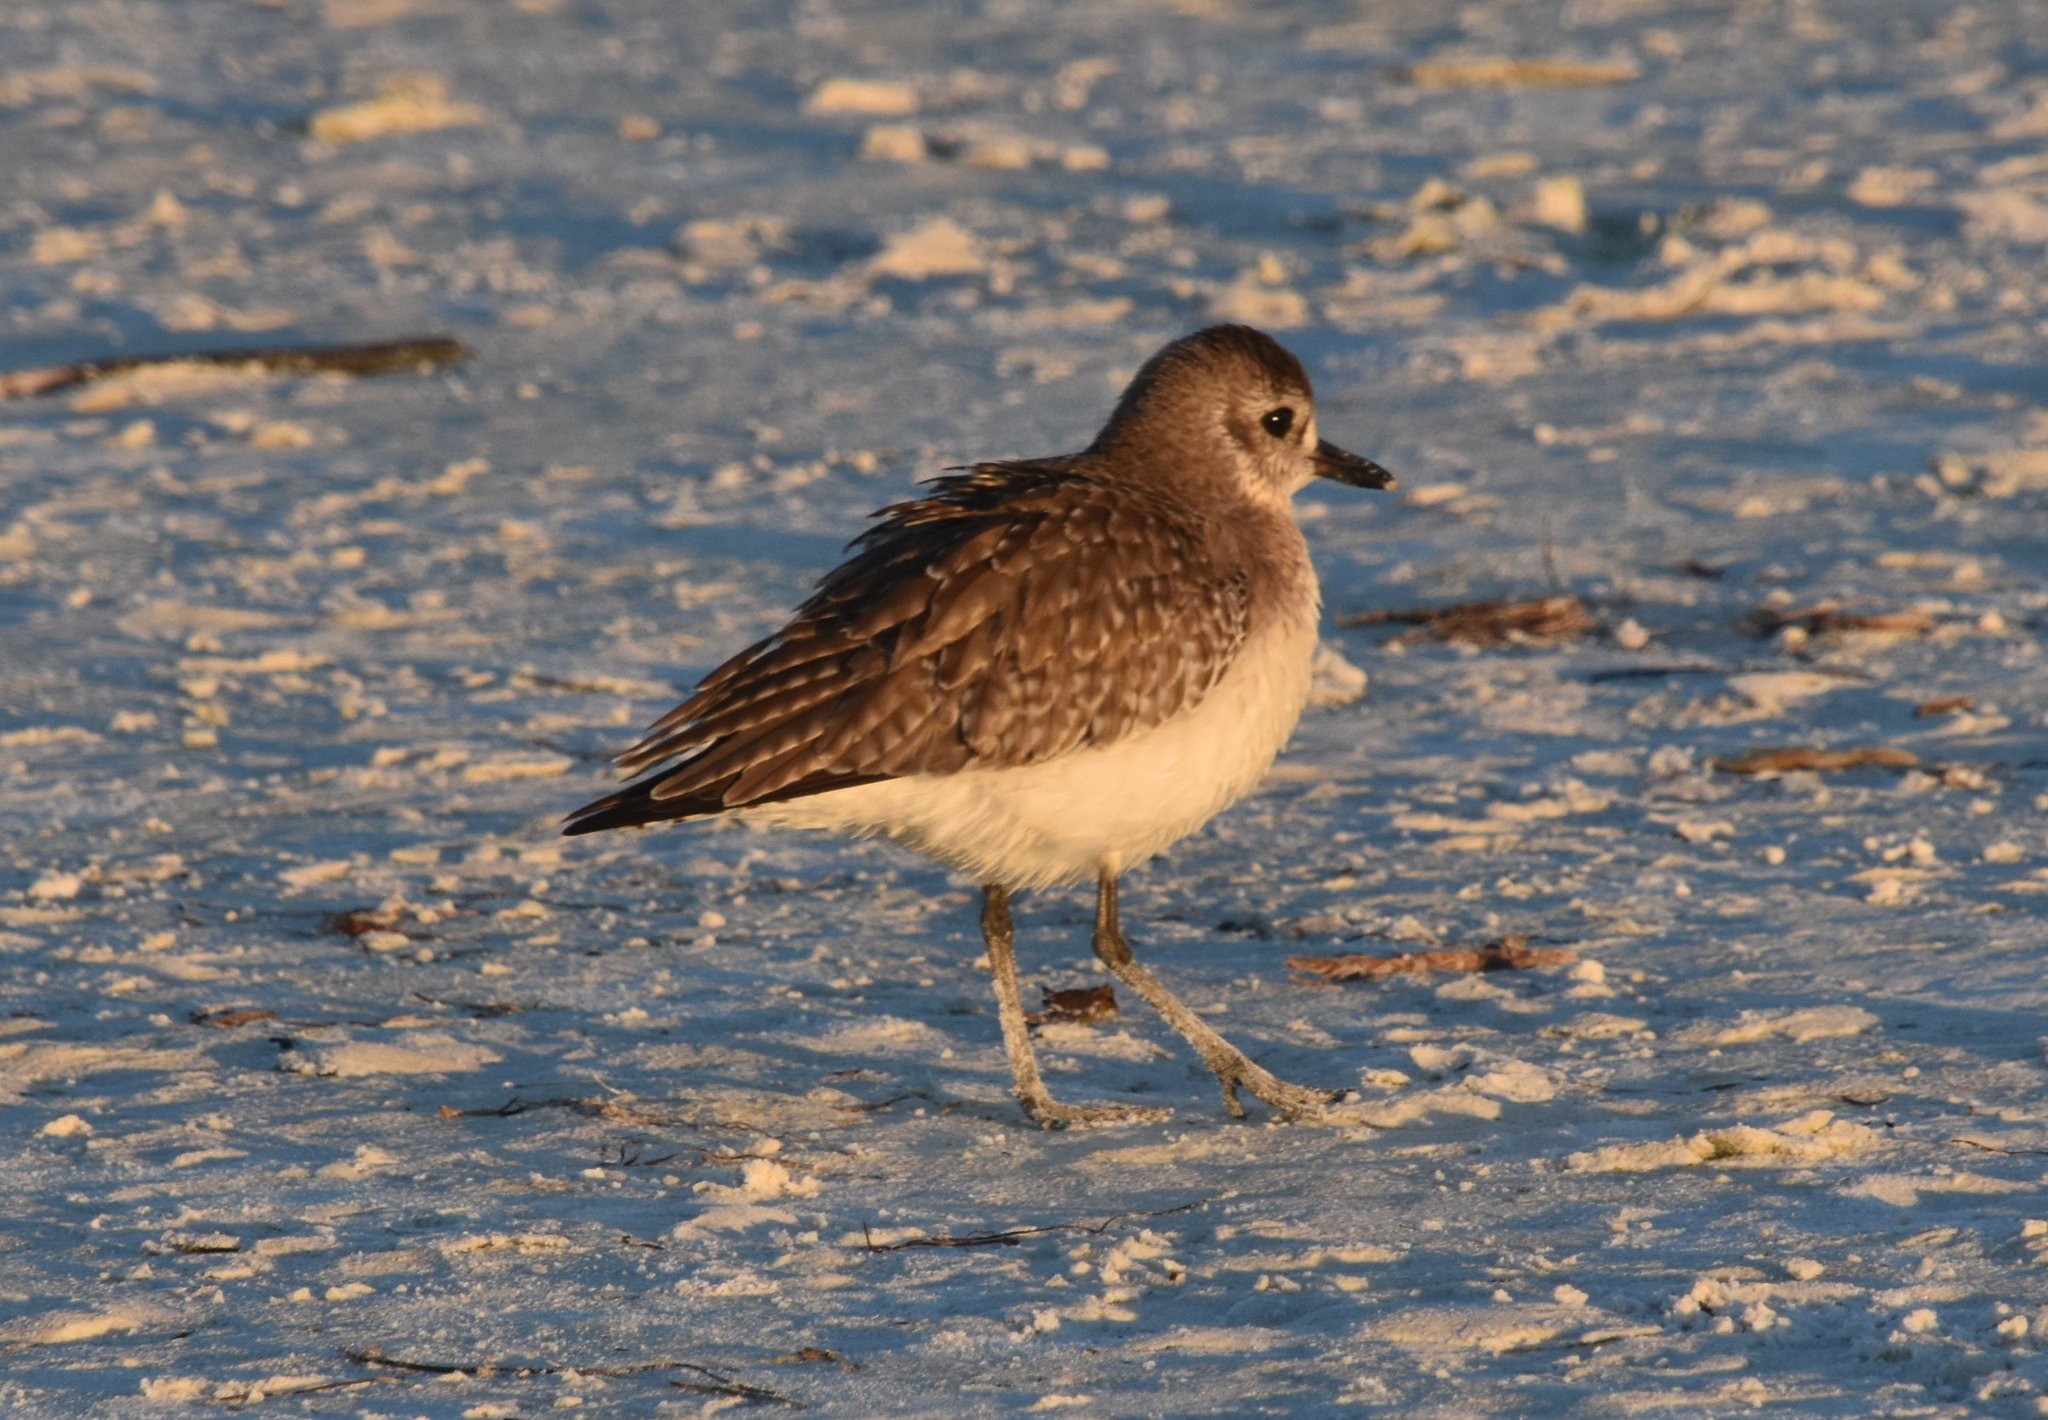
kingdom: Animalia
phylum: Chordata
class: Aves
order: Charadriiformes
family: Charadriidae
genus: Pluvialis
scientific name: Pluvialis squatarola
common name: Grey plover
